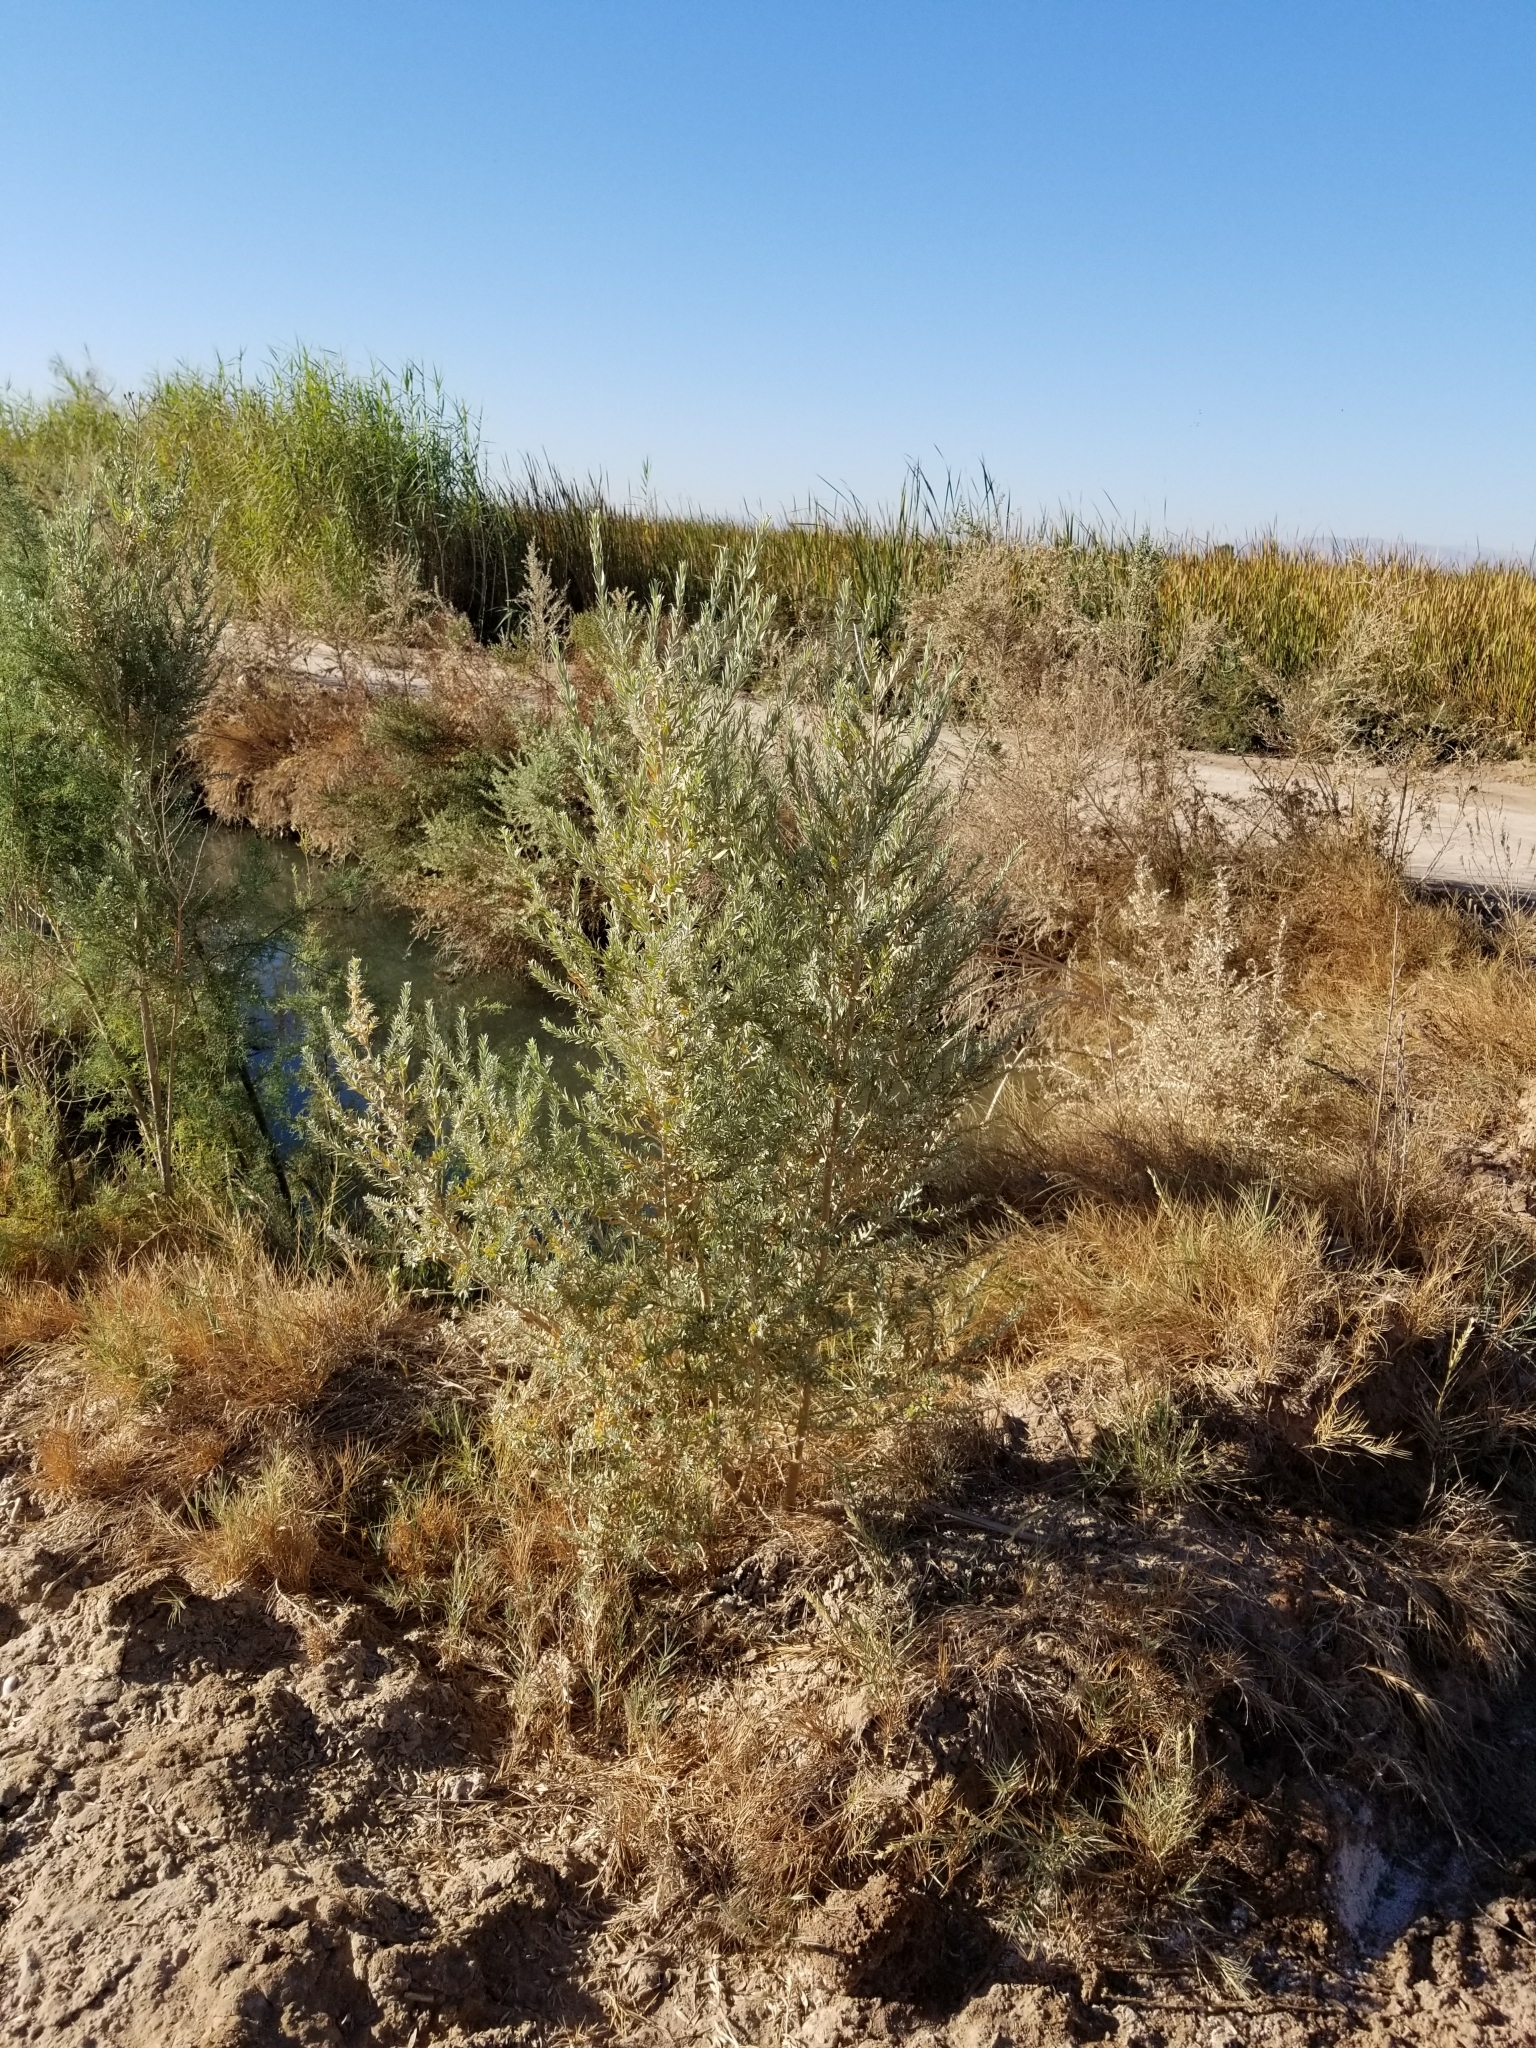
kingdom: Plantae
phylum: Tracheophyta
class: Magnoliopsida
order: Asterales
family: Asteraceae
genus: Pluchea
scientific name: Pluchea sericea
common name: Arrow-weed
